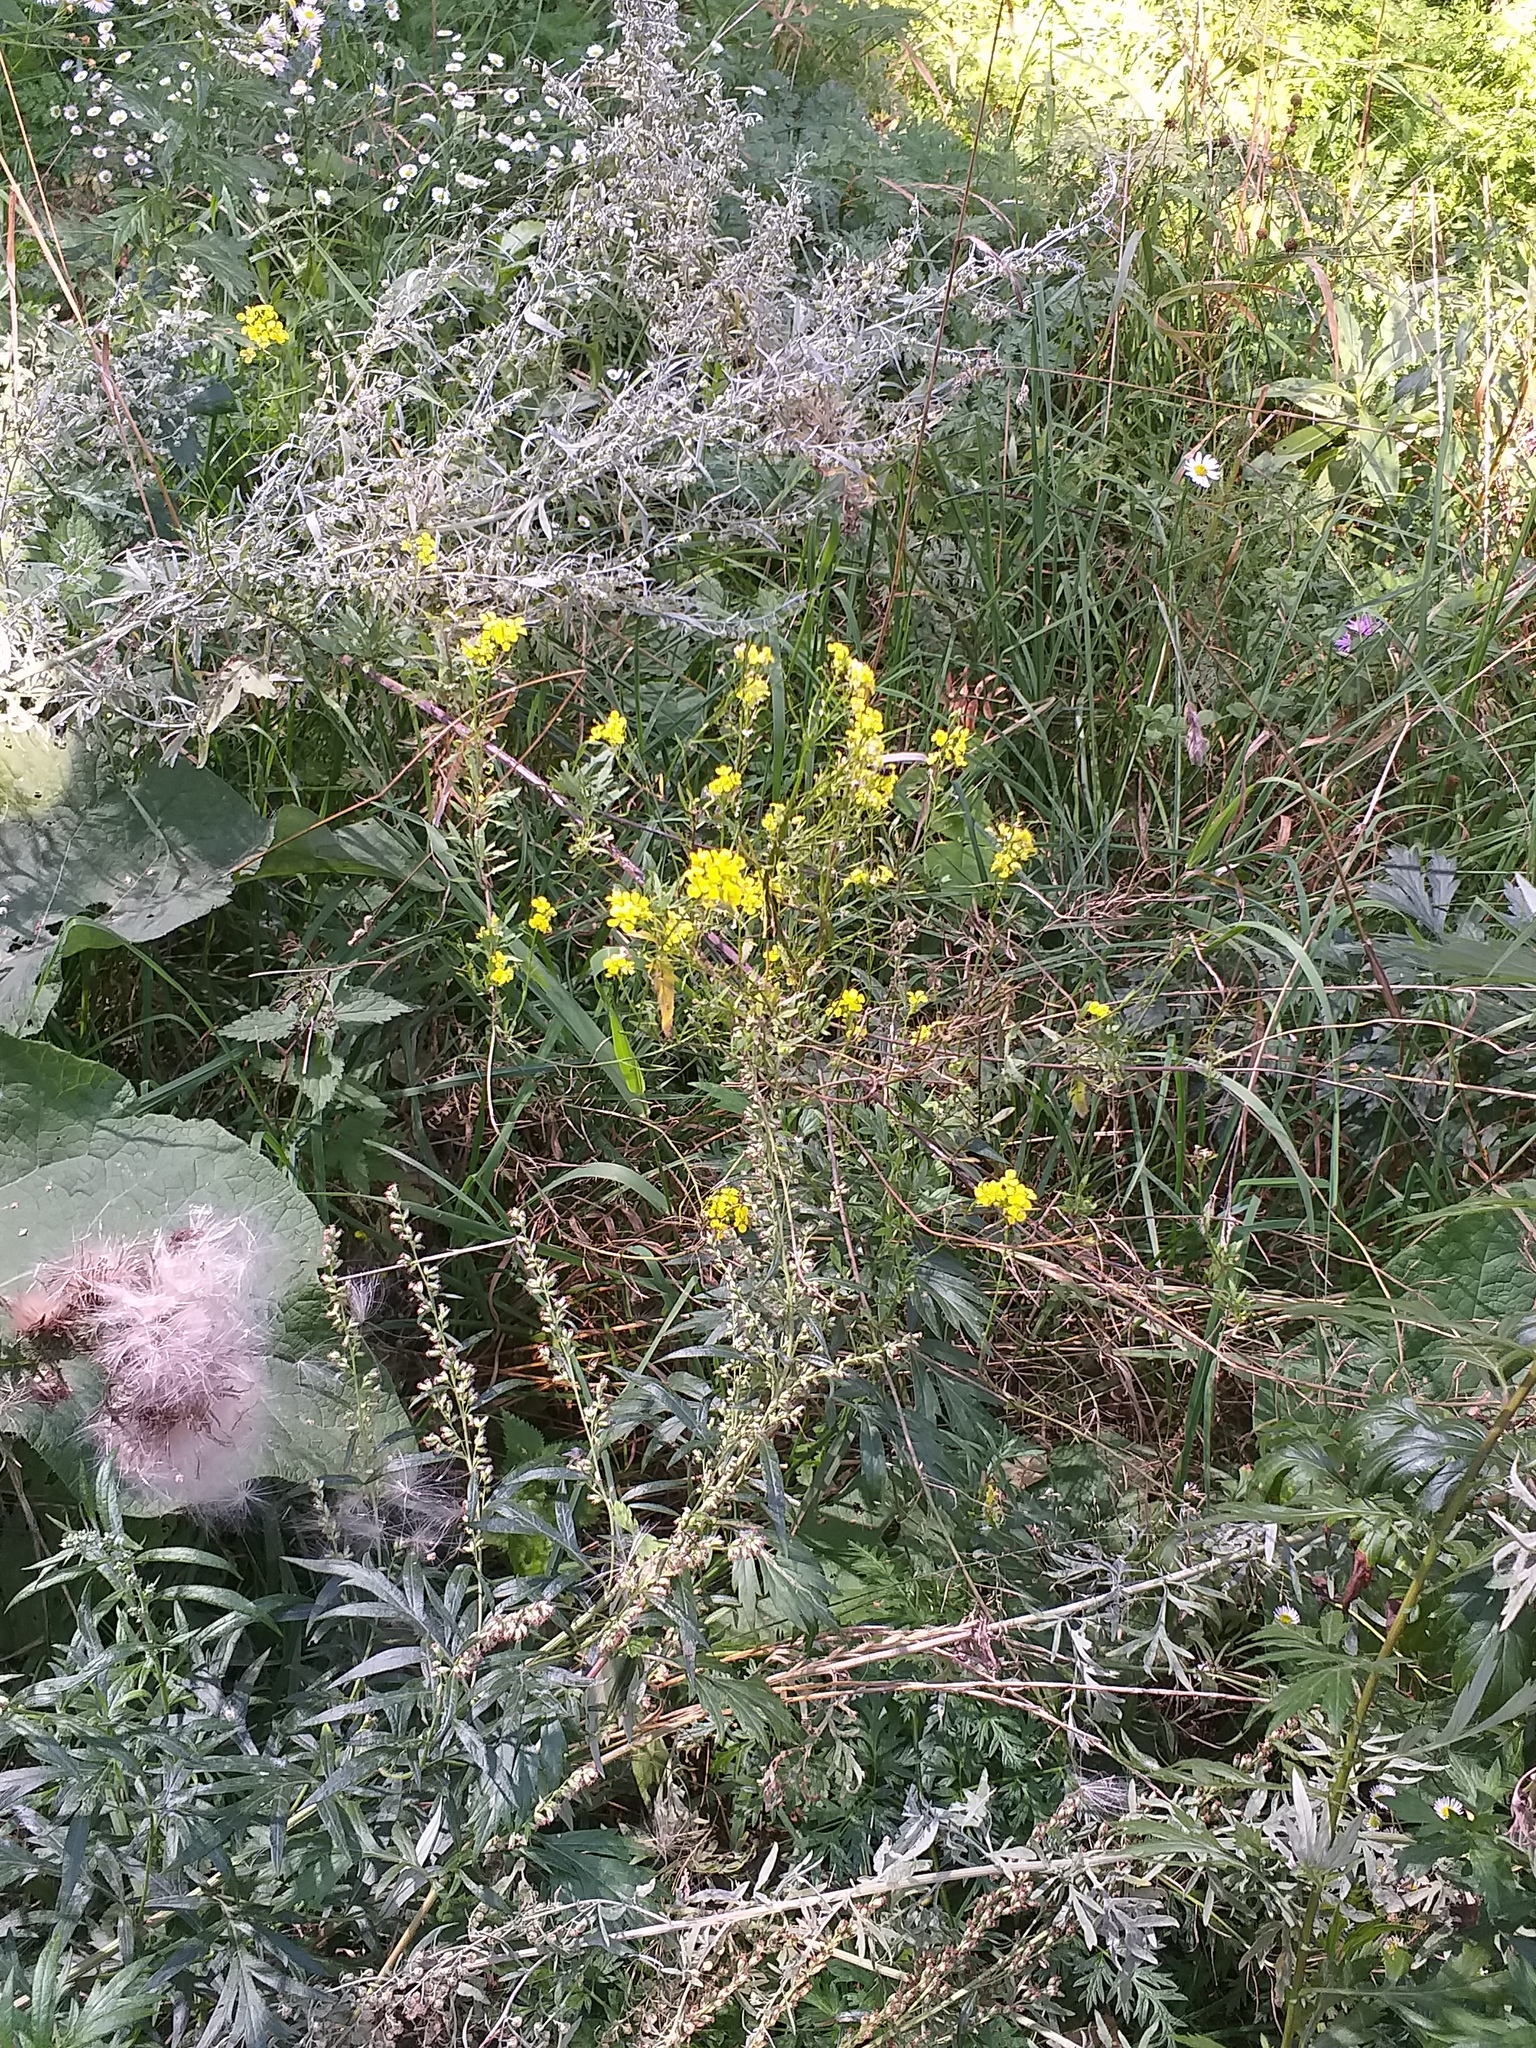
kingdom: Plantae
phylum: Tracheophyta
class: Magnoliopsida
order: Brassicales
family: Brassicaceae
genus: Sisymbrium
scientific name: Sisymbrium loeselii
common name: False london-rocket
